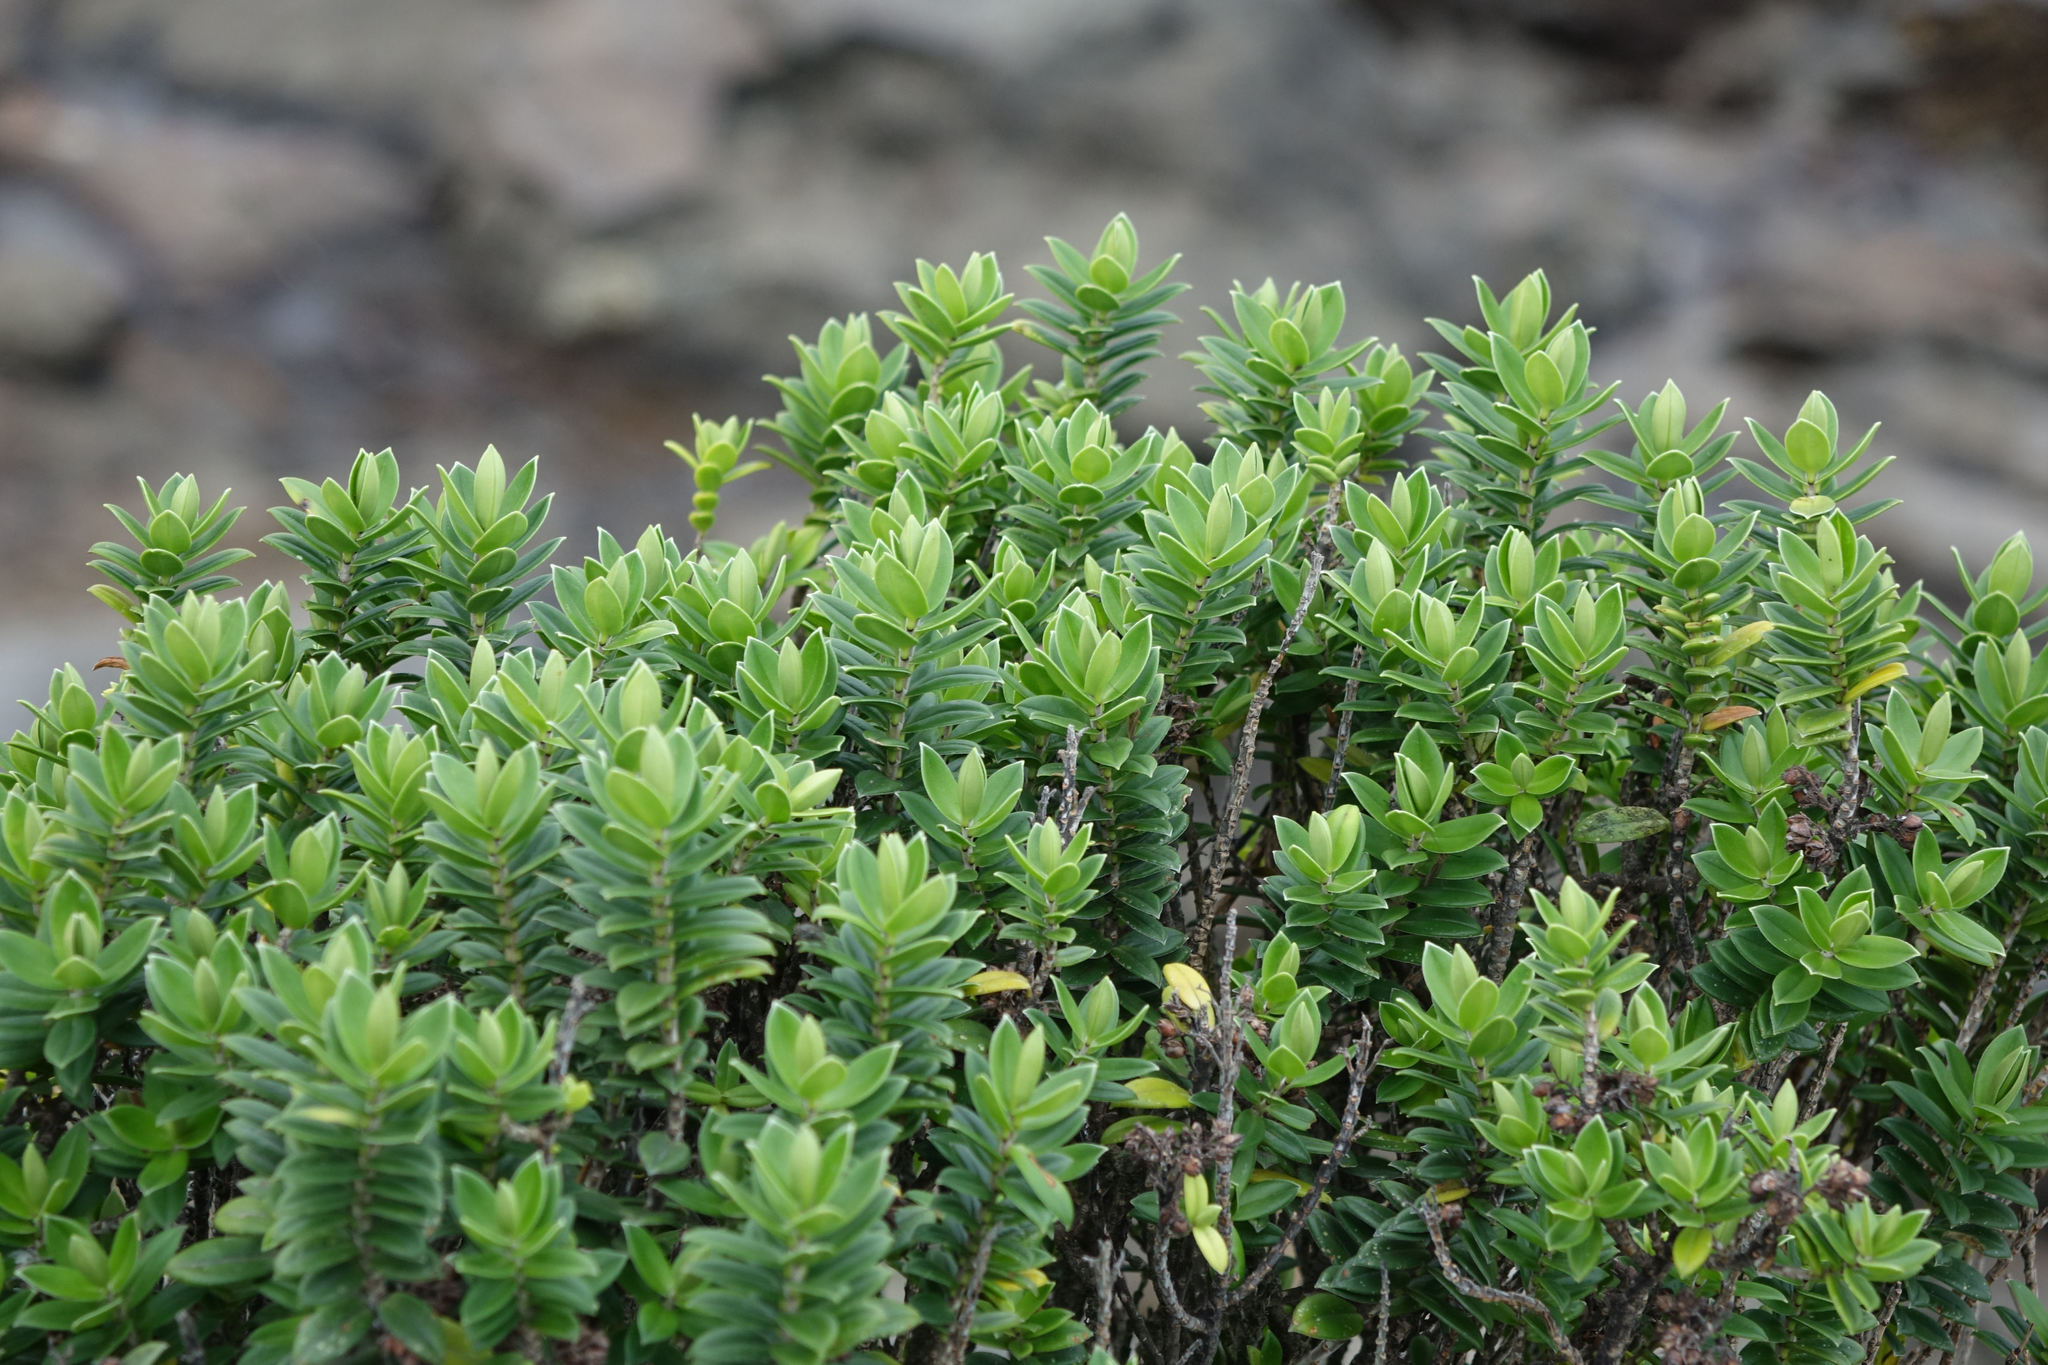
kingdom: Plantae
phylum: Tracheophyta
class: Magnoliopsida
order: Lamiales
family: Plantaginaceae
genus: Veronica
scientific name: Veronica elliptica
